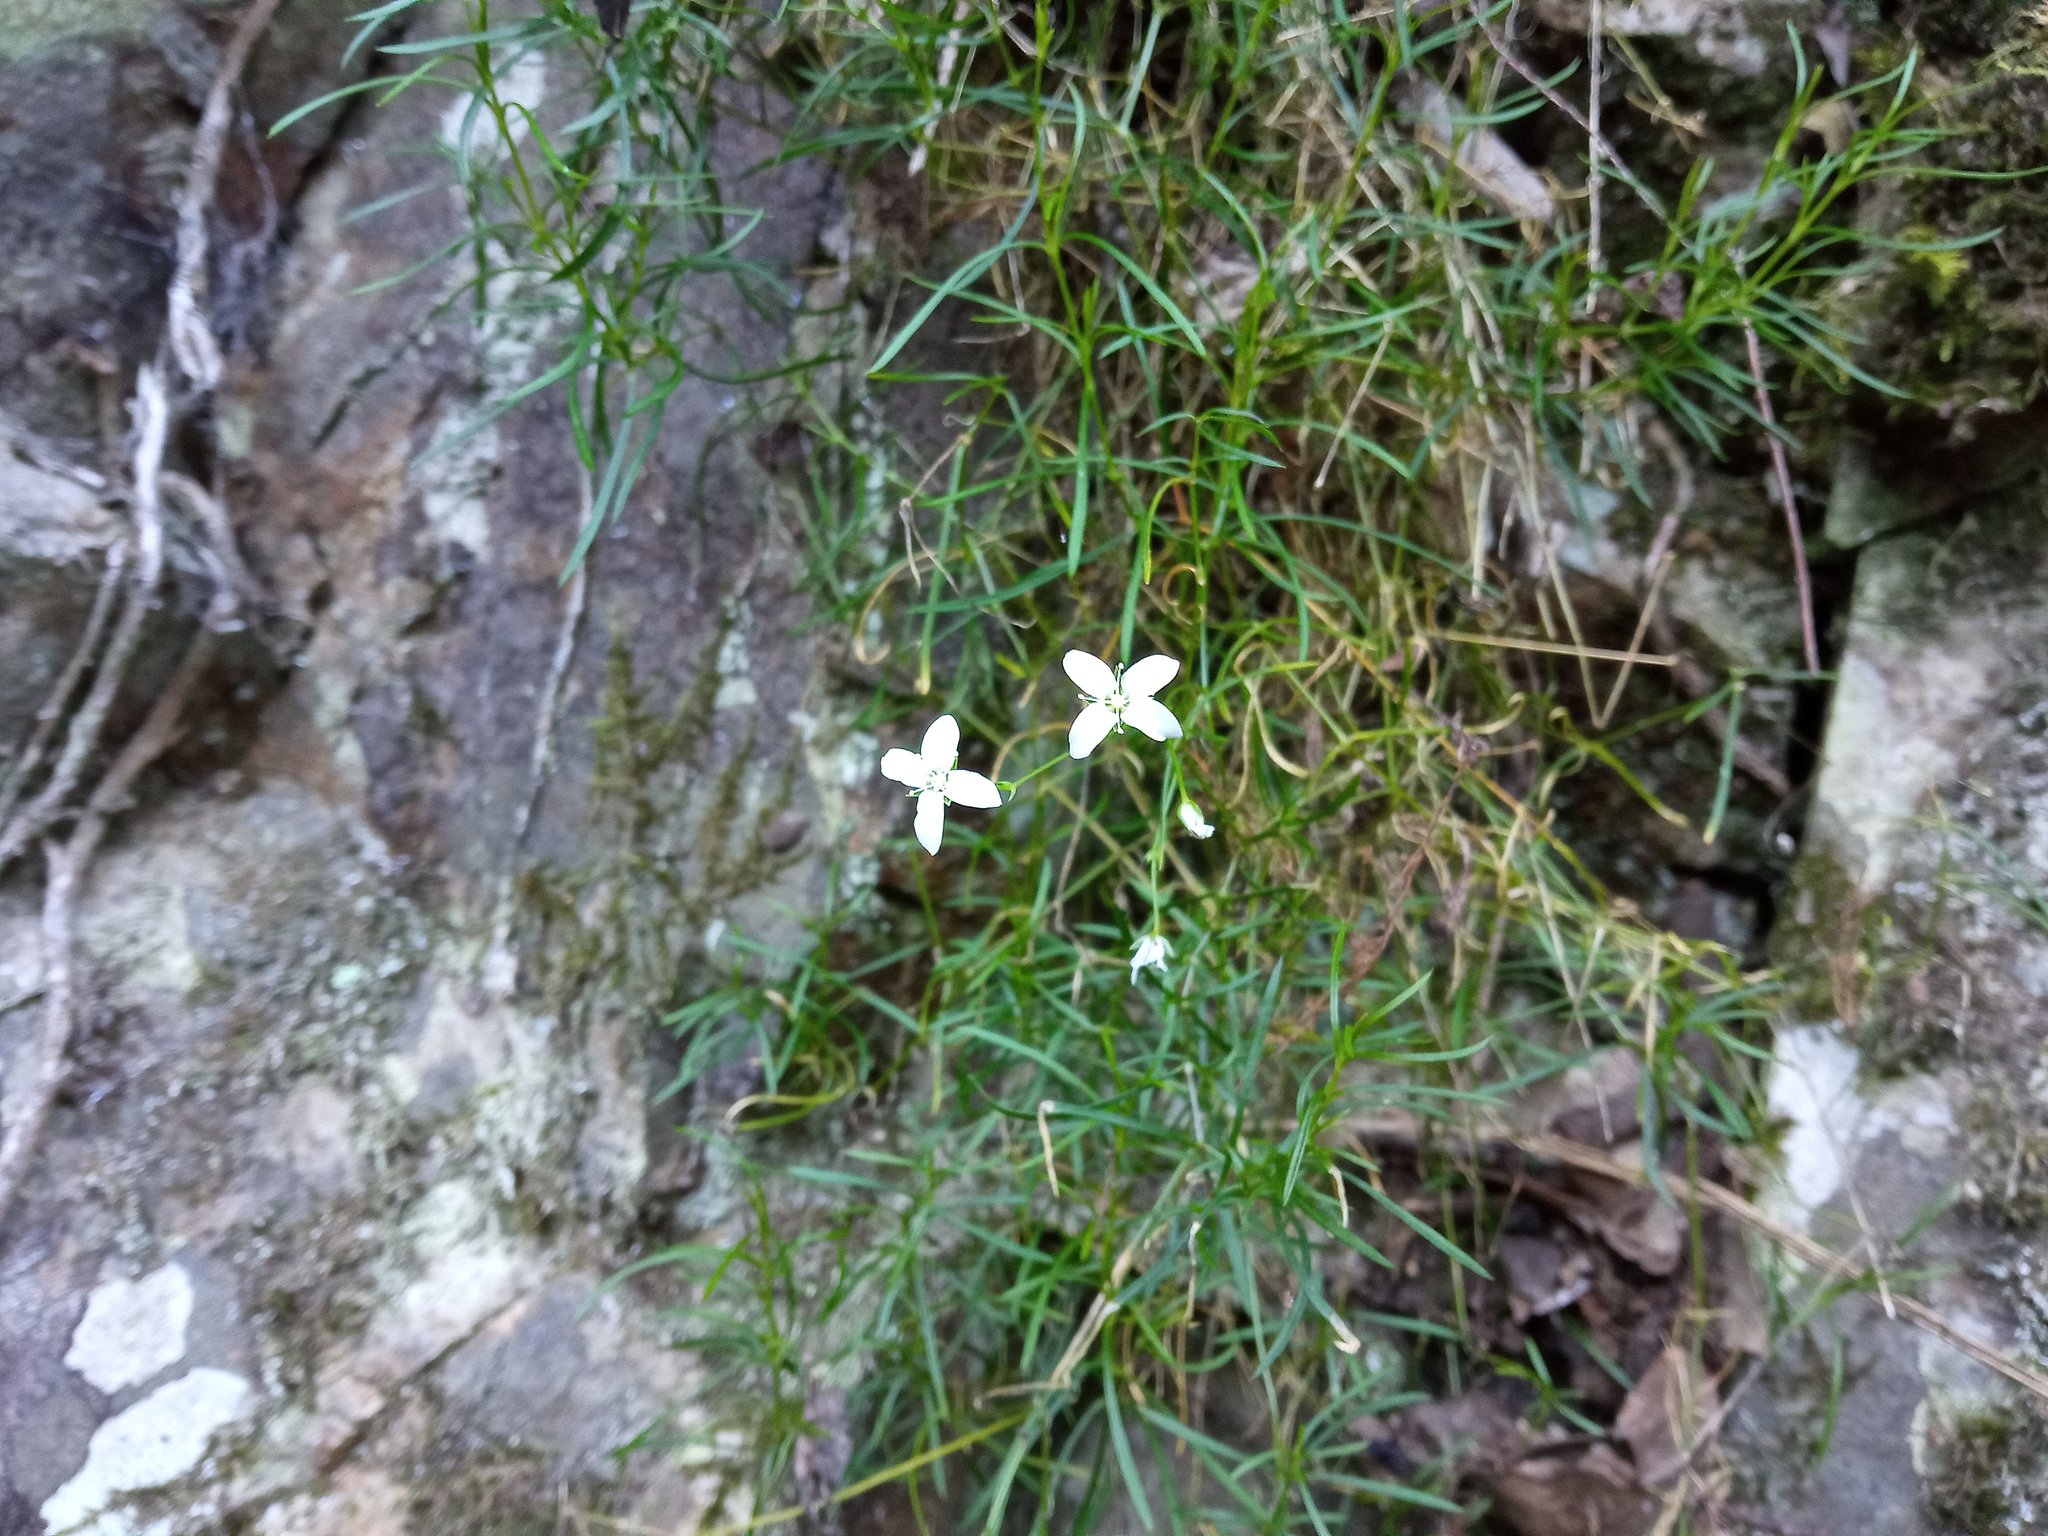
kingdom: Plantae
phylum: Tracheophyta
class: Magnoliopsida
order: Caryophyllales
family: Caryophyllaceae
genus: Moehringia
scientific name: Moehringia muscosa
